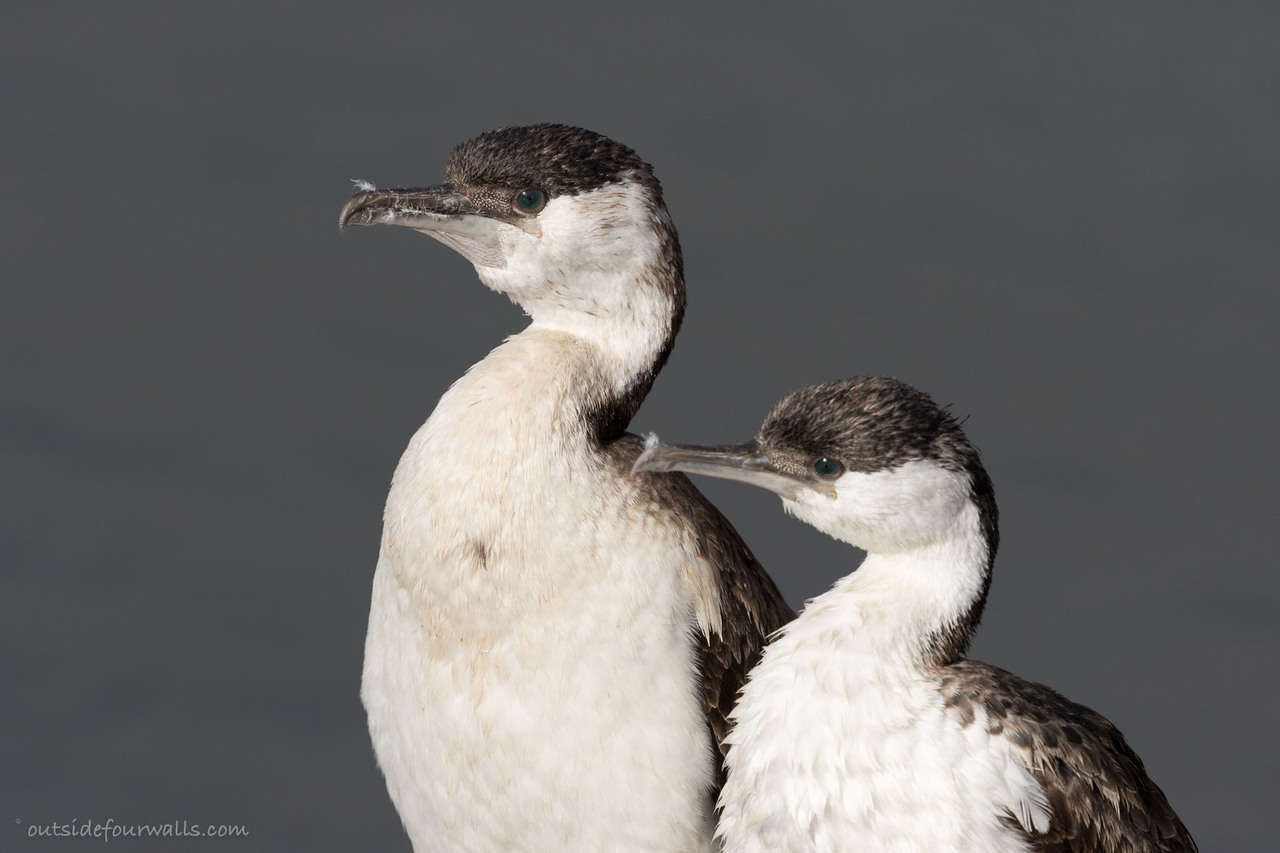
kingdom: Animalia
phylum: Chordata
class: Aves
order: Suliformes
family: Phalacrocoracidae
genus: Phalacrocorax
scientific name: Phalacrocorax fuscescens
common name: Black-faced cormorant
